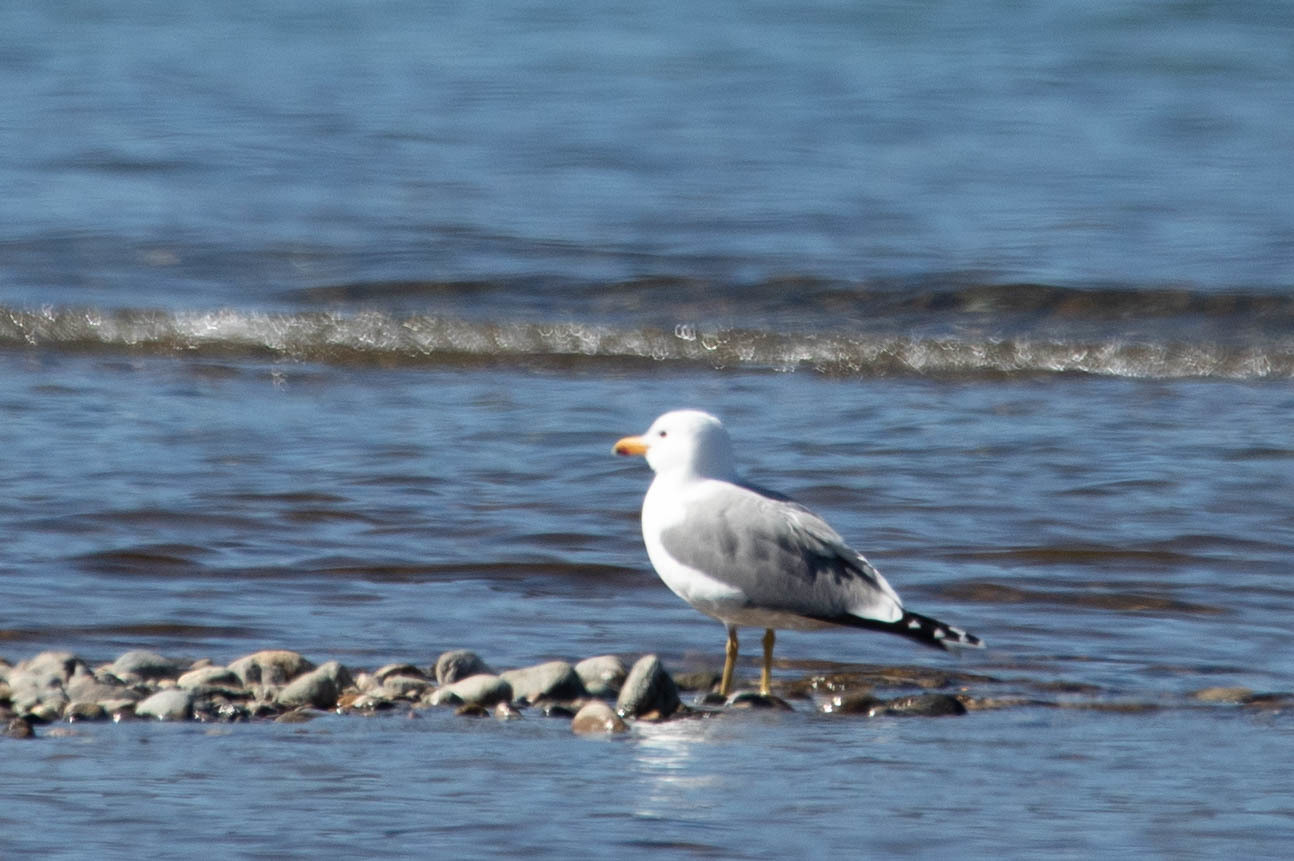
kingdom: Animalia
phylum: Chordata
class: Aves
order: Charadriiformes
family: Laridae
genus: Larus
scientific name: Larus californicus
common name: California gull
